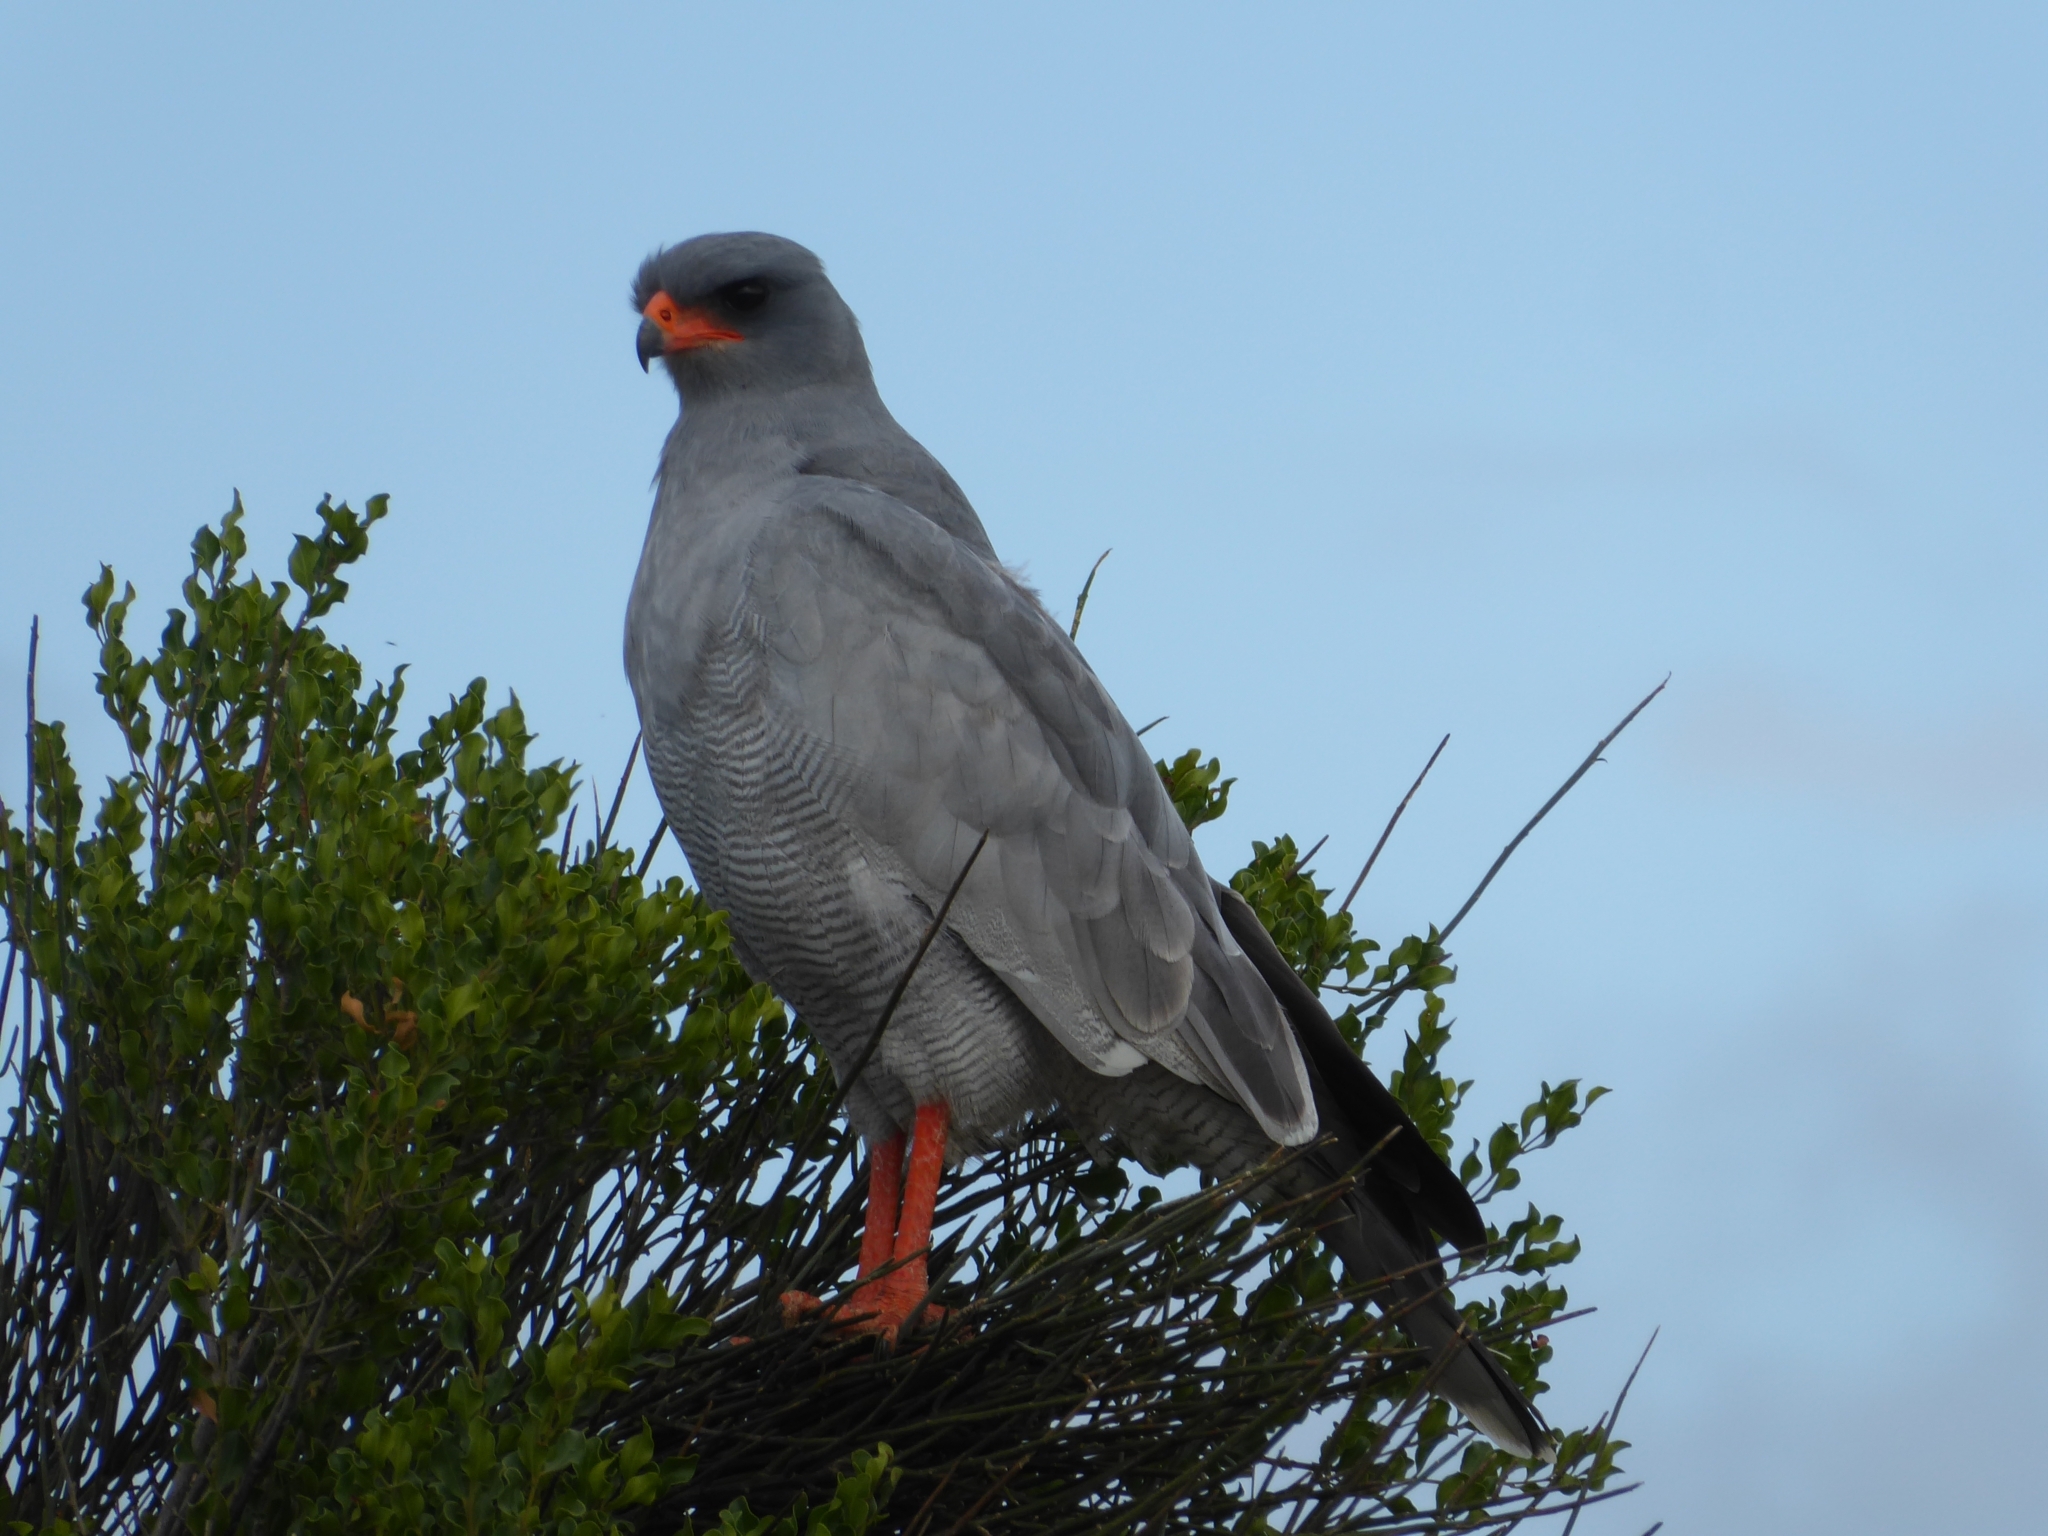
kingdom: Animalia
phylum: Chordata
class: Aves
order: Accipitriformes
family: Accipitridae
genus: Melierax
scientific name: Melierax canorus
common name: Pale chanting-goshawk
